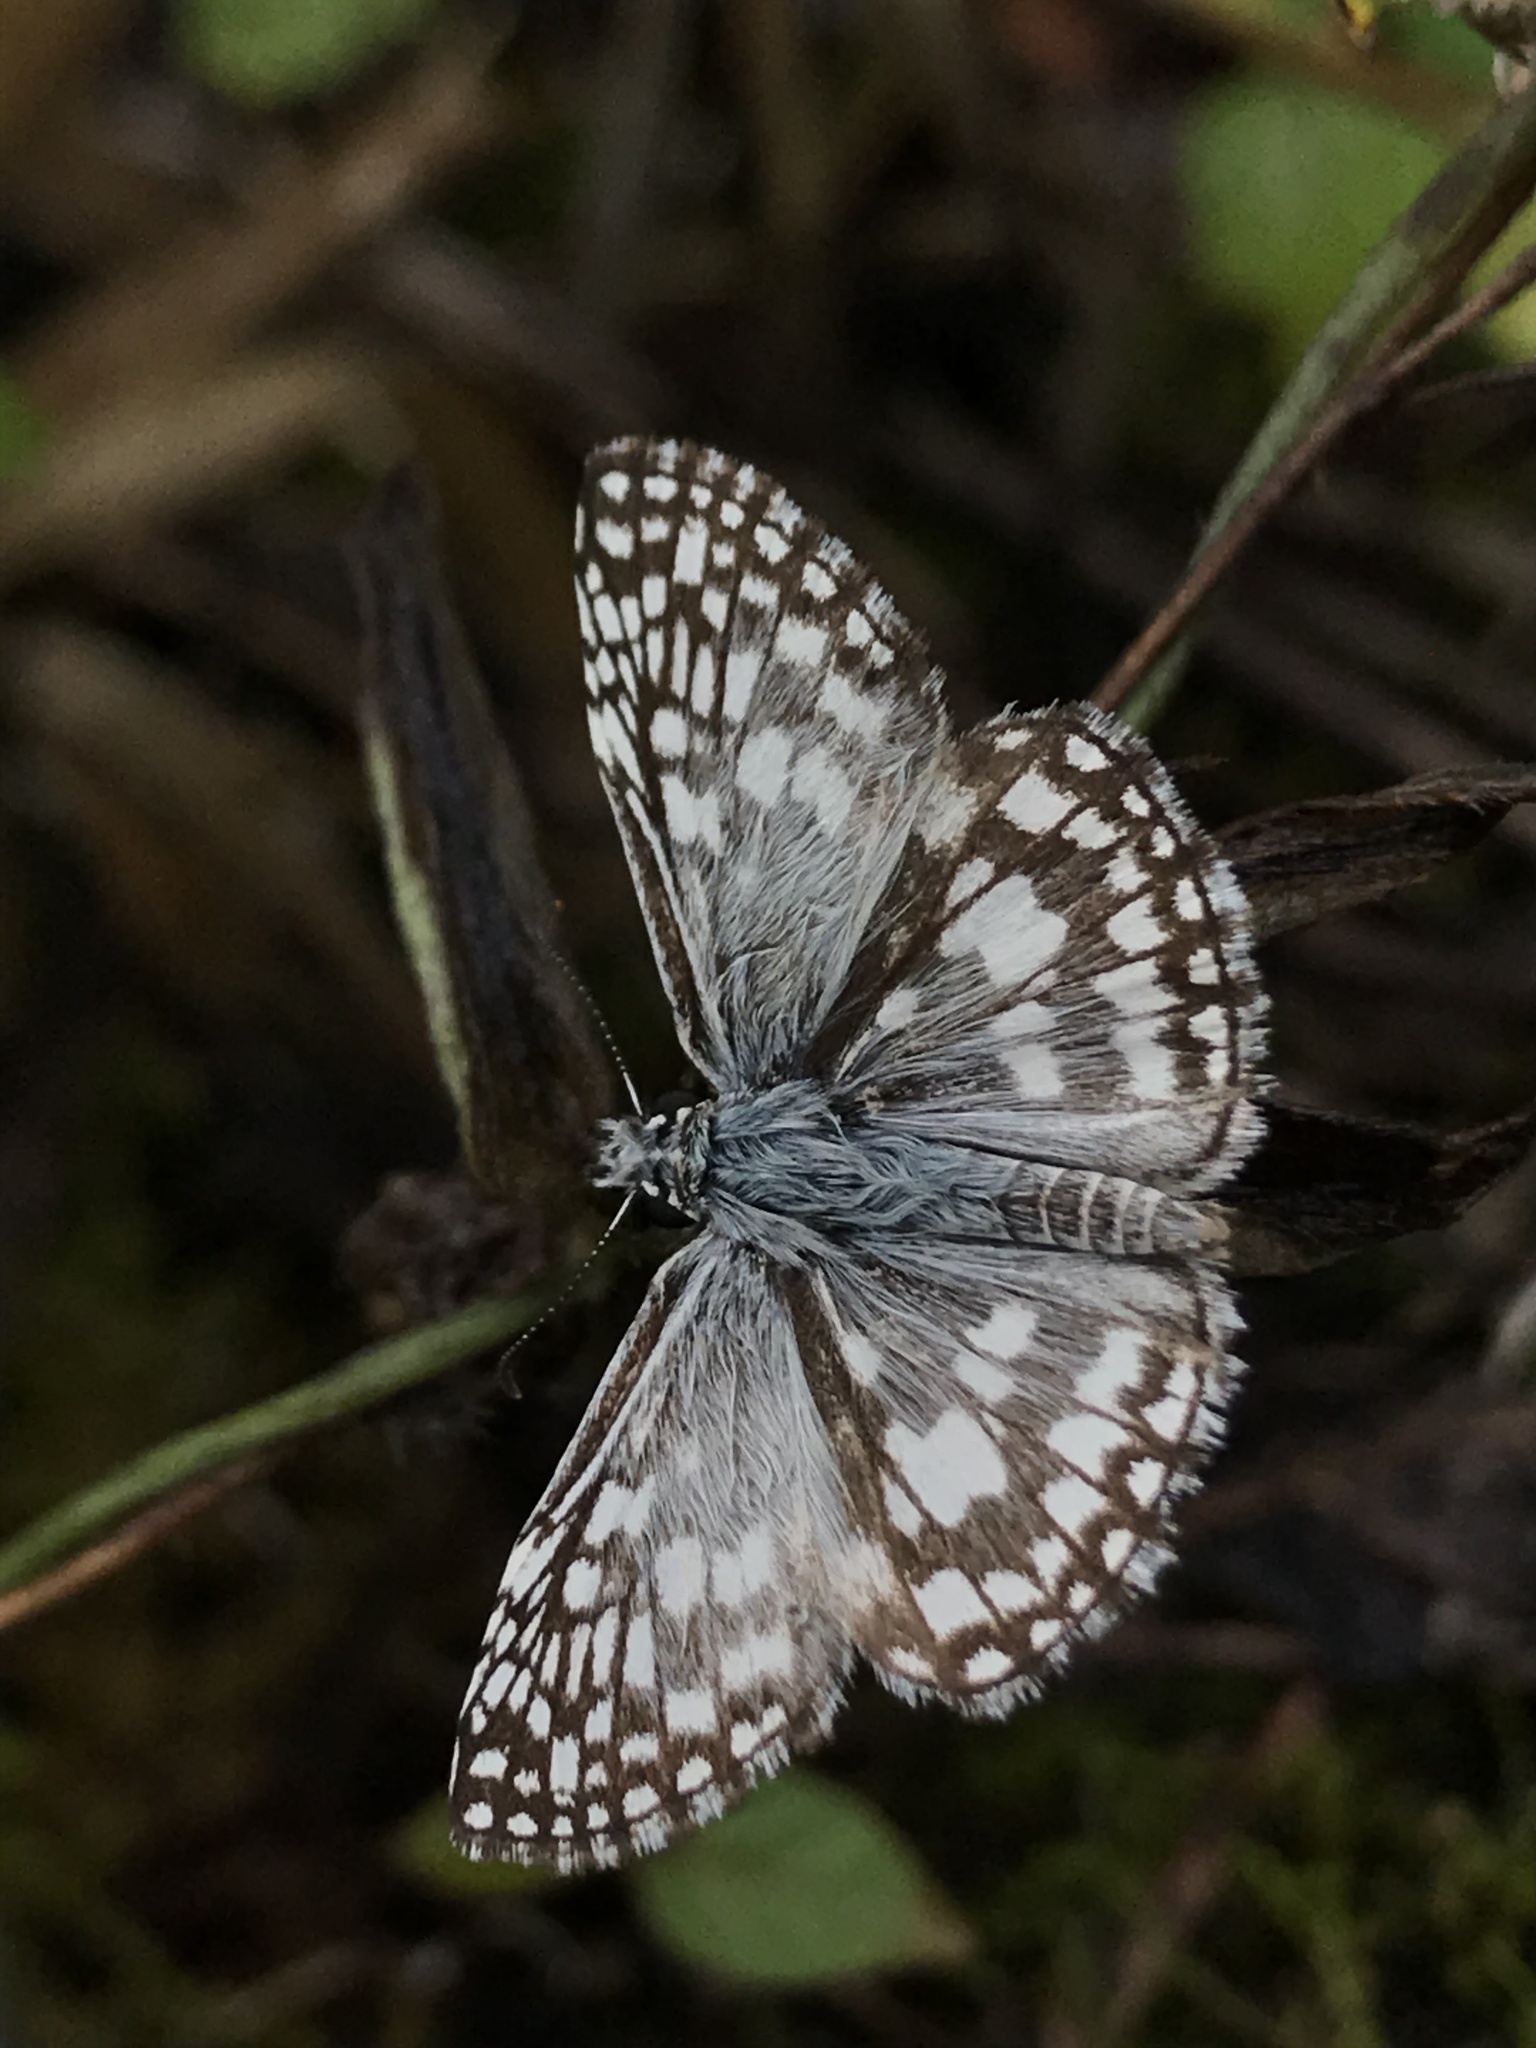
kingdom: Animalia
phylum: Arthropoda
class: Insecta
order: Lepidoptera
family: Hesperiidae
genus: Pyrgus
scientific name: Pyrgus oileus
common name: Tropical checkered-skipper
